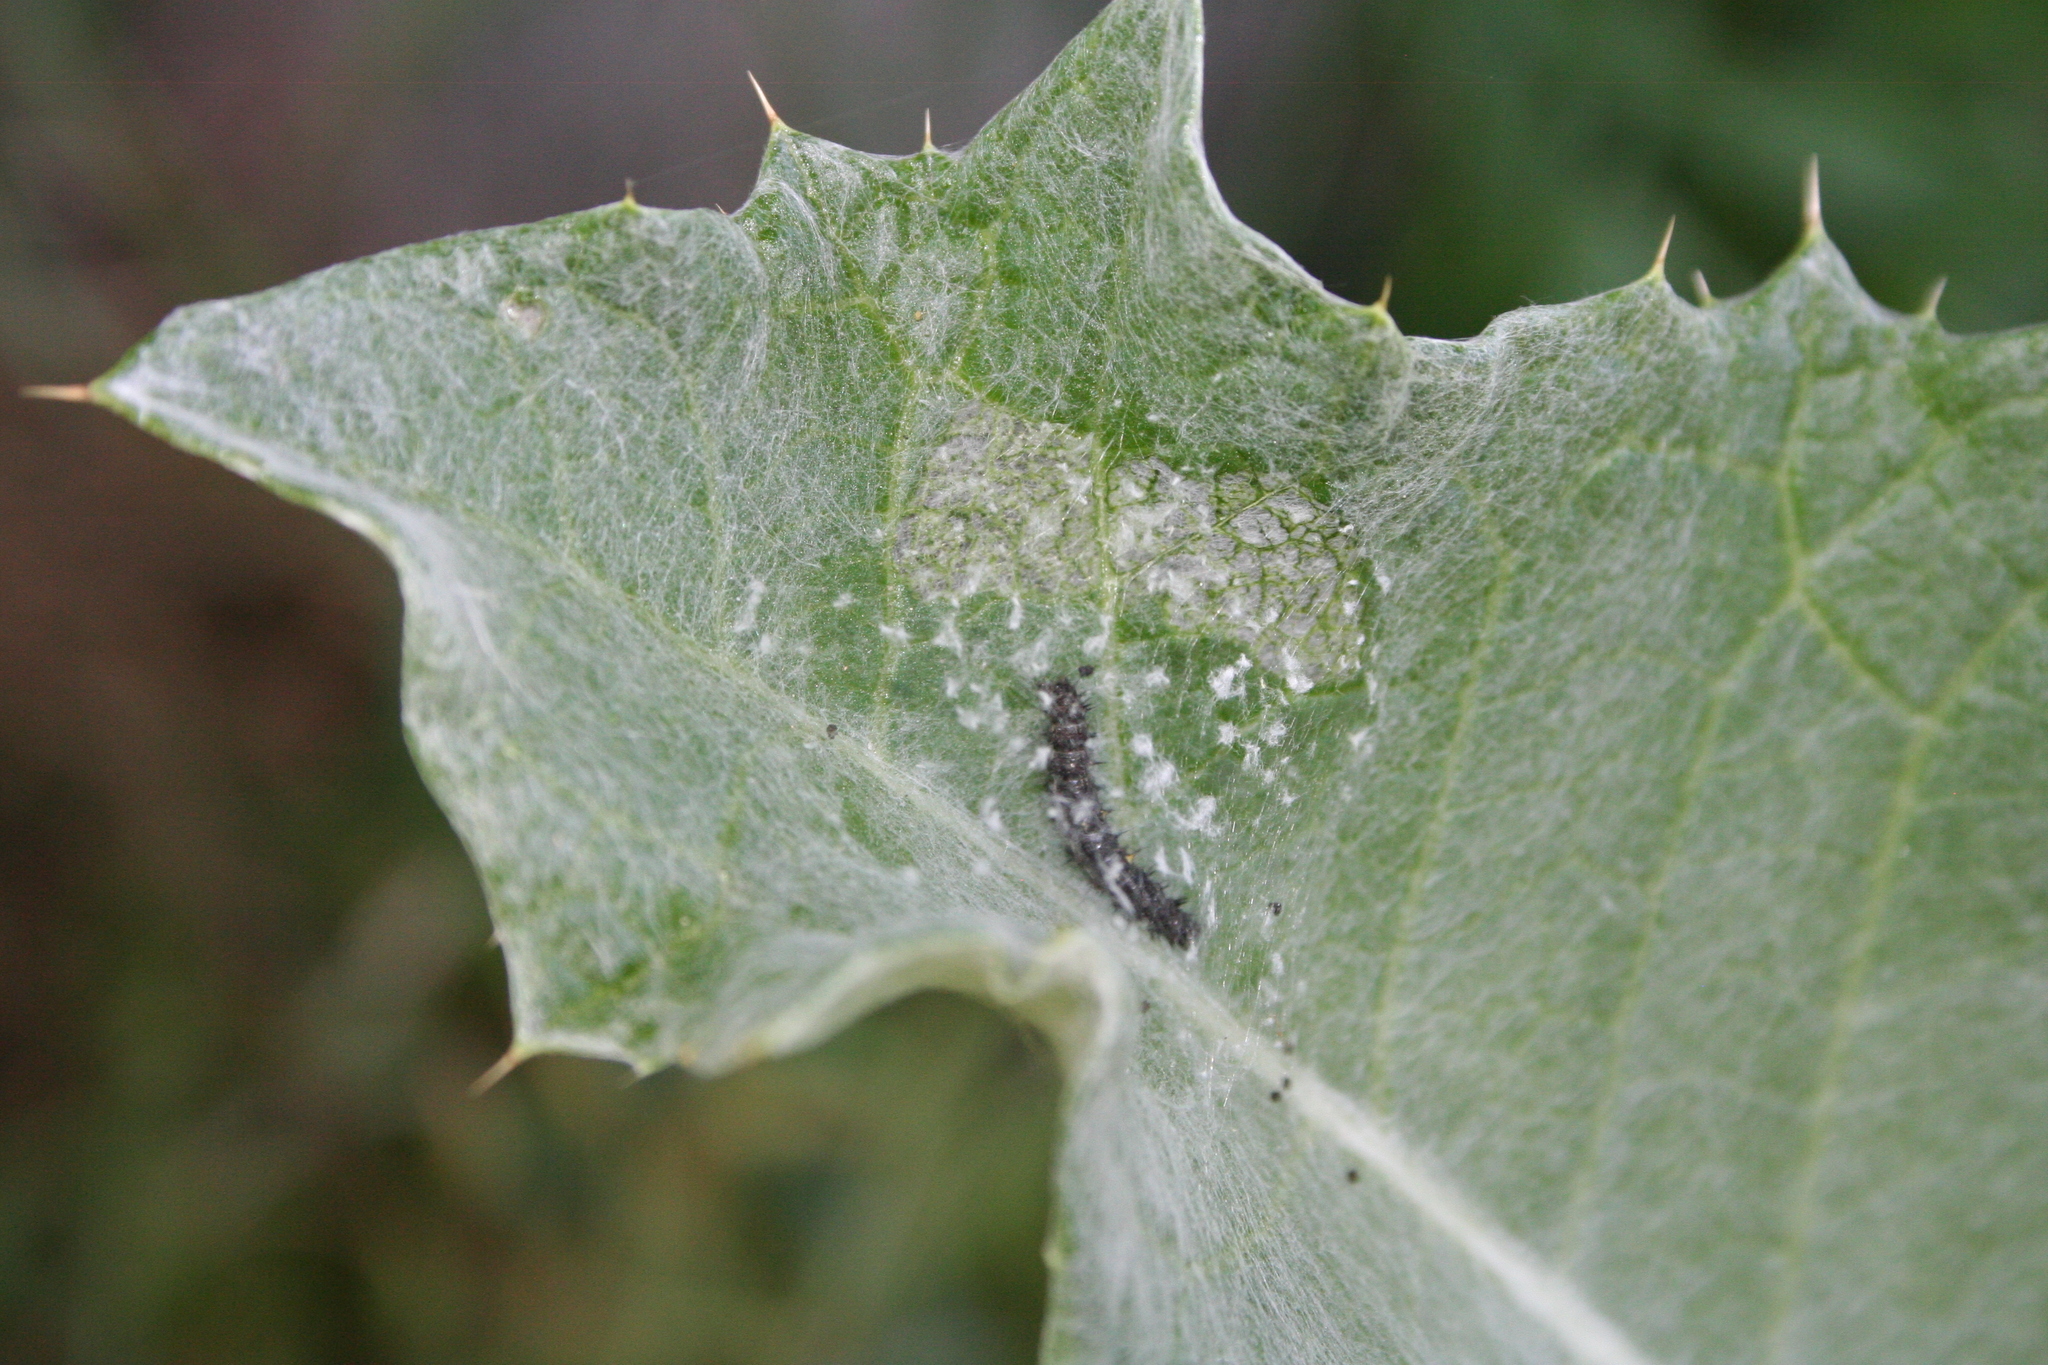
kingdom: Animalia
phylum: Arthropoda
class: Insecta
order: Lepidoptera
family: Nymphalidae
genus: Vanessa
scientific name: Vanessa cardui
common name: Painted lady
